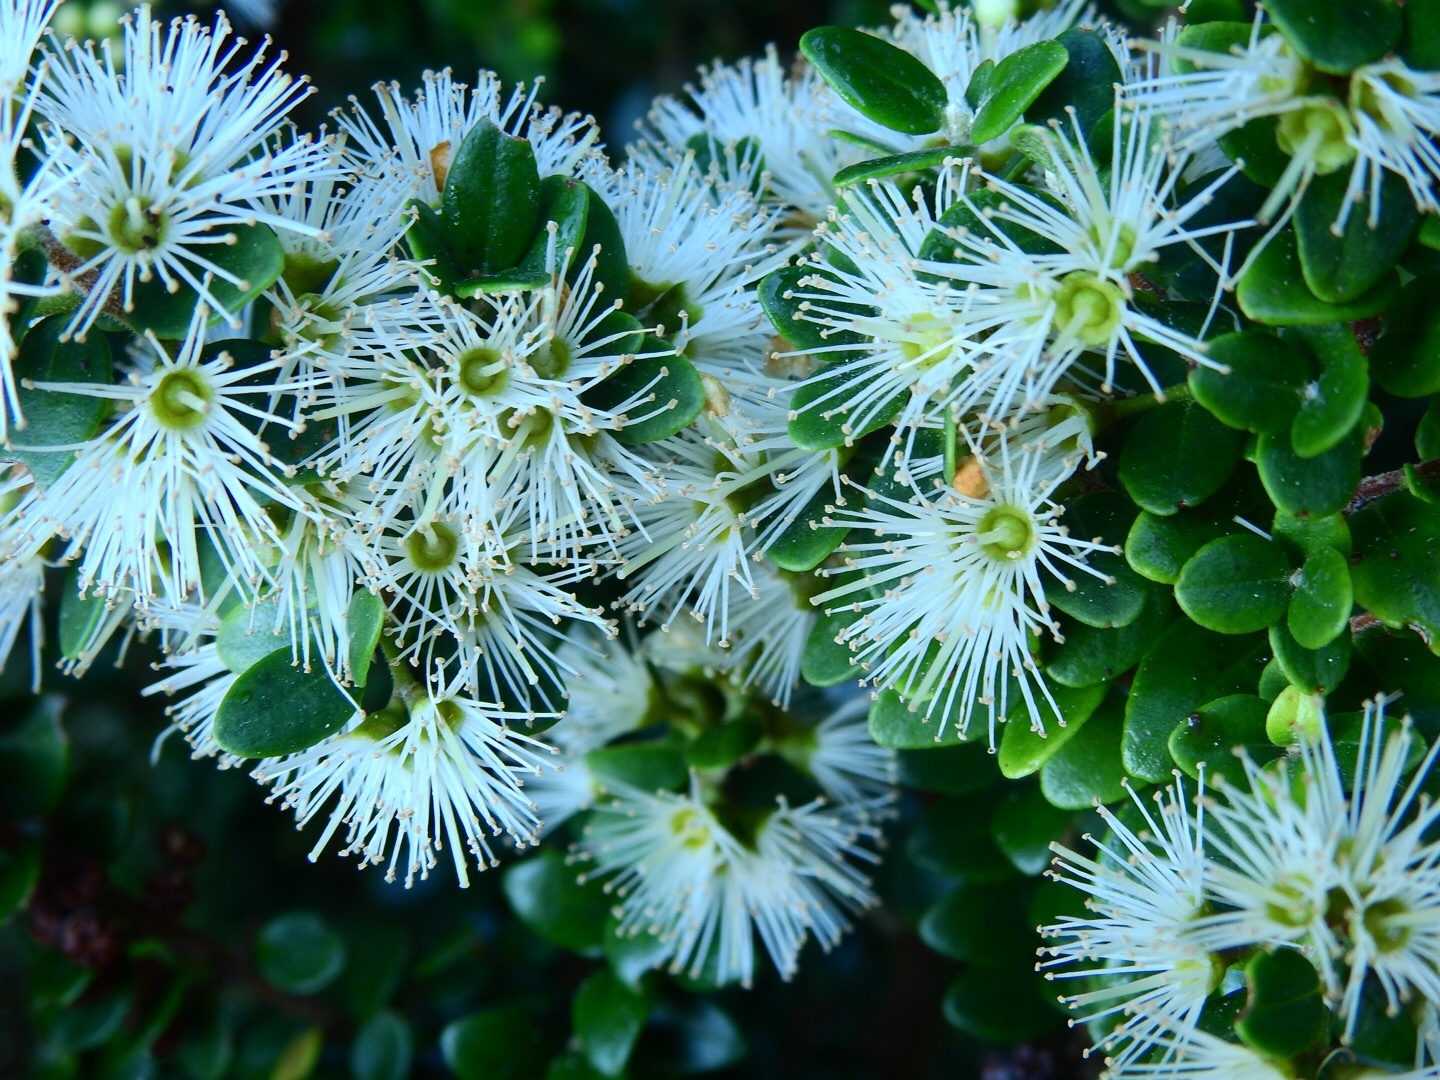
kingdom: Plantae
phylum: Tracheophyta
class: Magnoliopsida
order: Myrtales
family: Myrtaceae
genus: Metrosideros
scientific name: Metrosideros perforata
